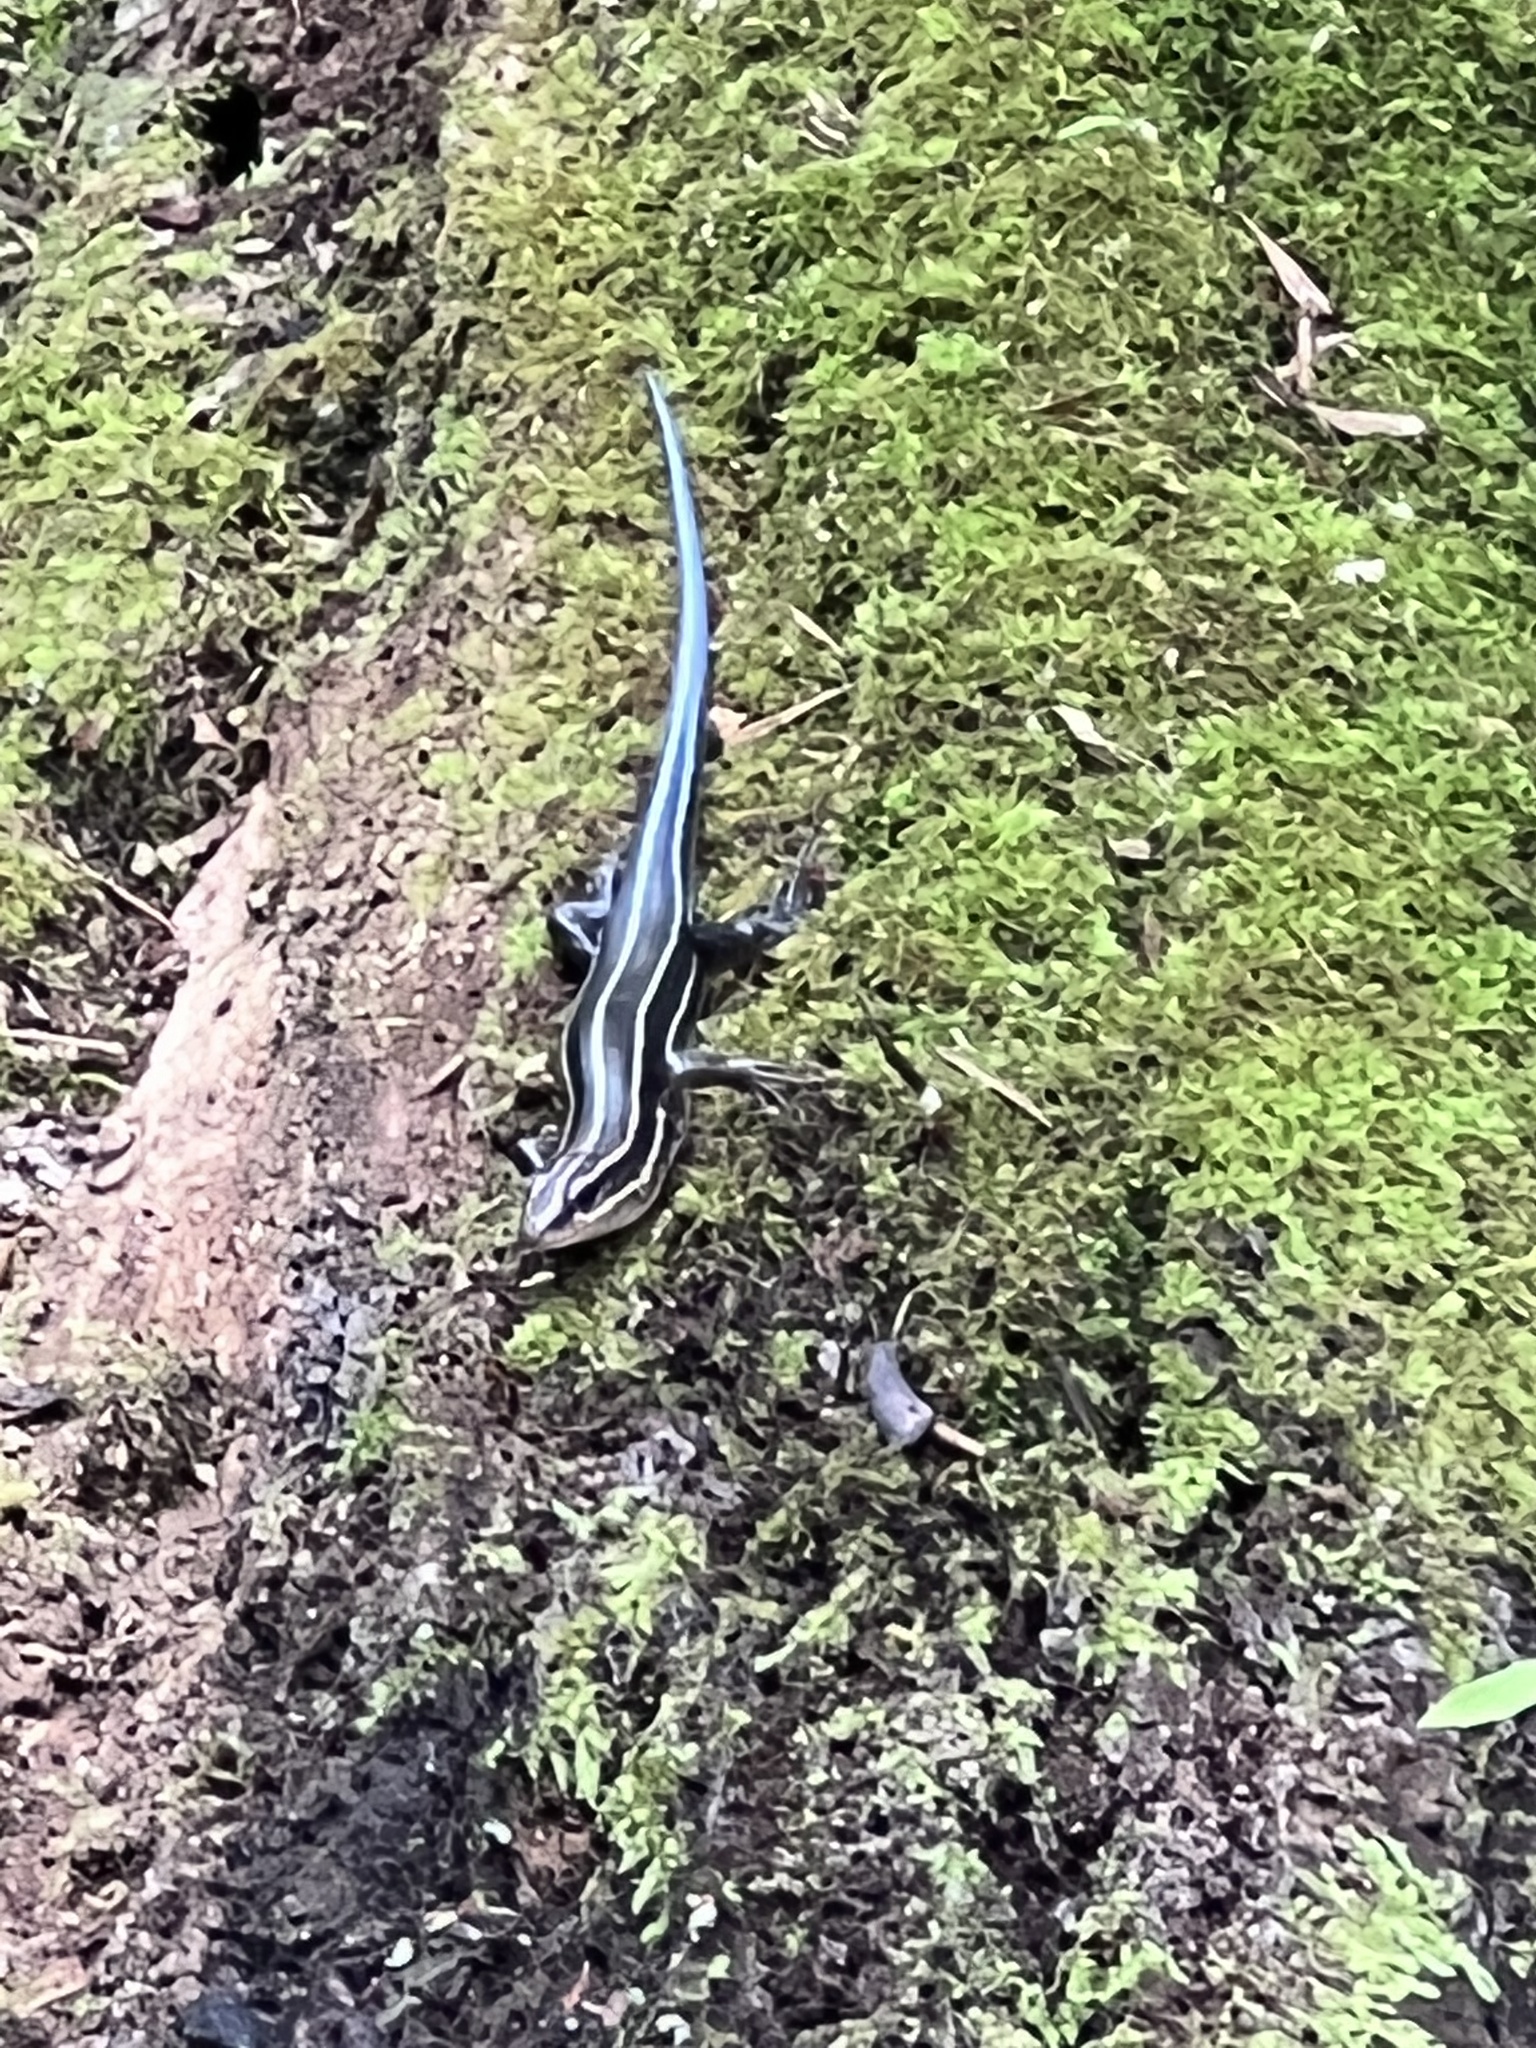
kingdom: Animalia
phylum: Chordata
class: Squamata
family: Scincidae
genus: Plestiodon
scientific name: Plestiodon laticeps
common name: Broadhead skink
